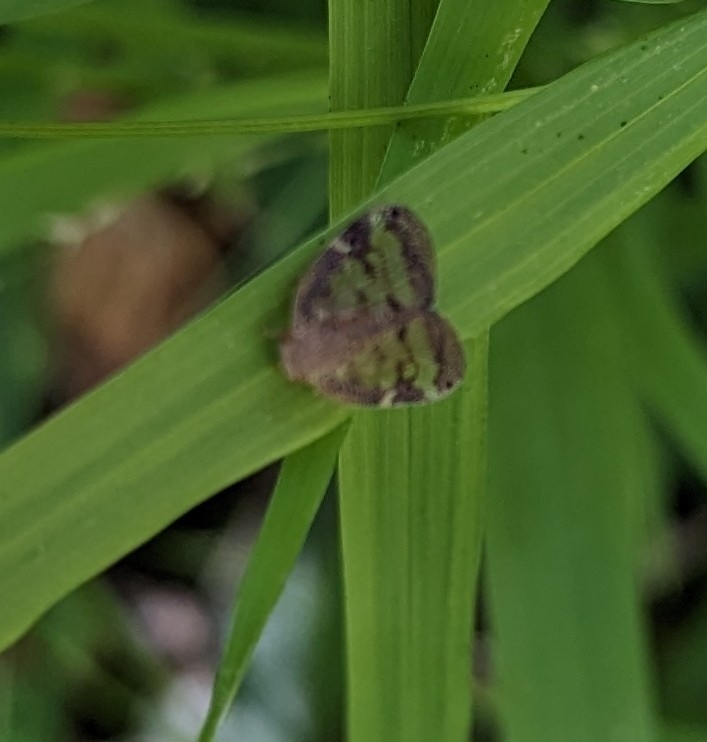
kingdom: Animalia
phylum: Arthropoda
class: Insecta
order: Hemiptera
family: Ricaniidae
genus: Scolypopa
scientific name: Scolypopa australis
